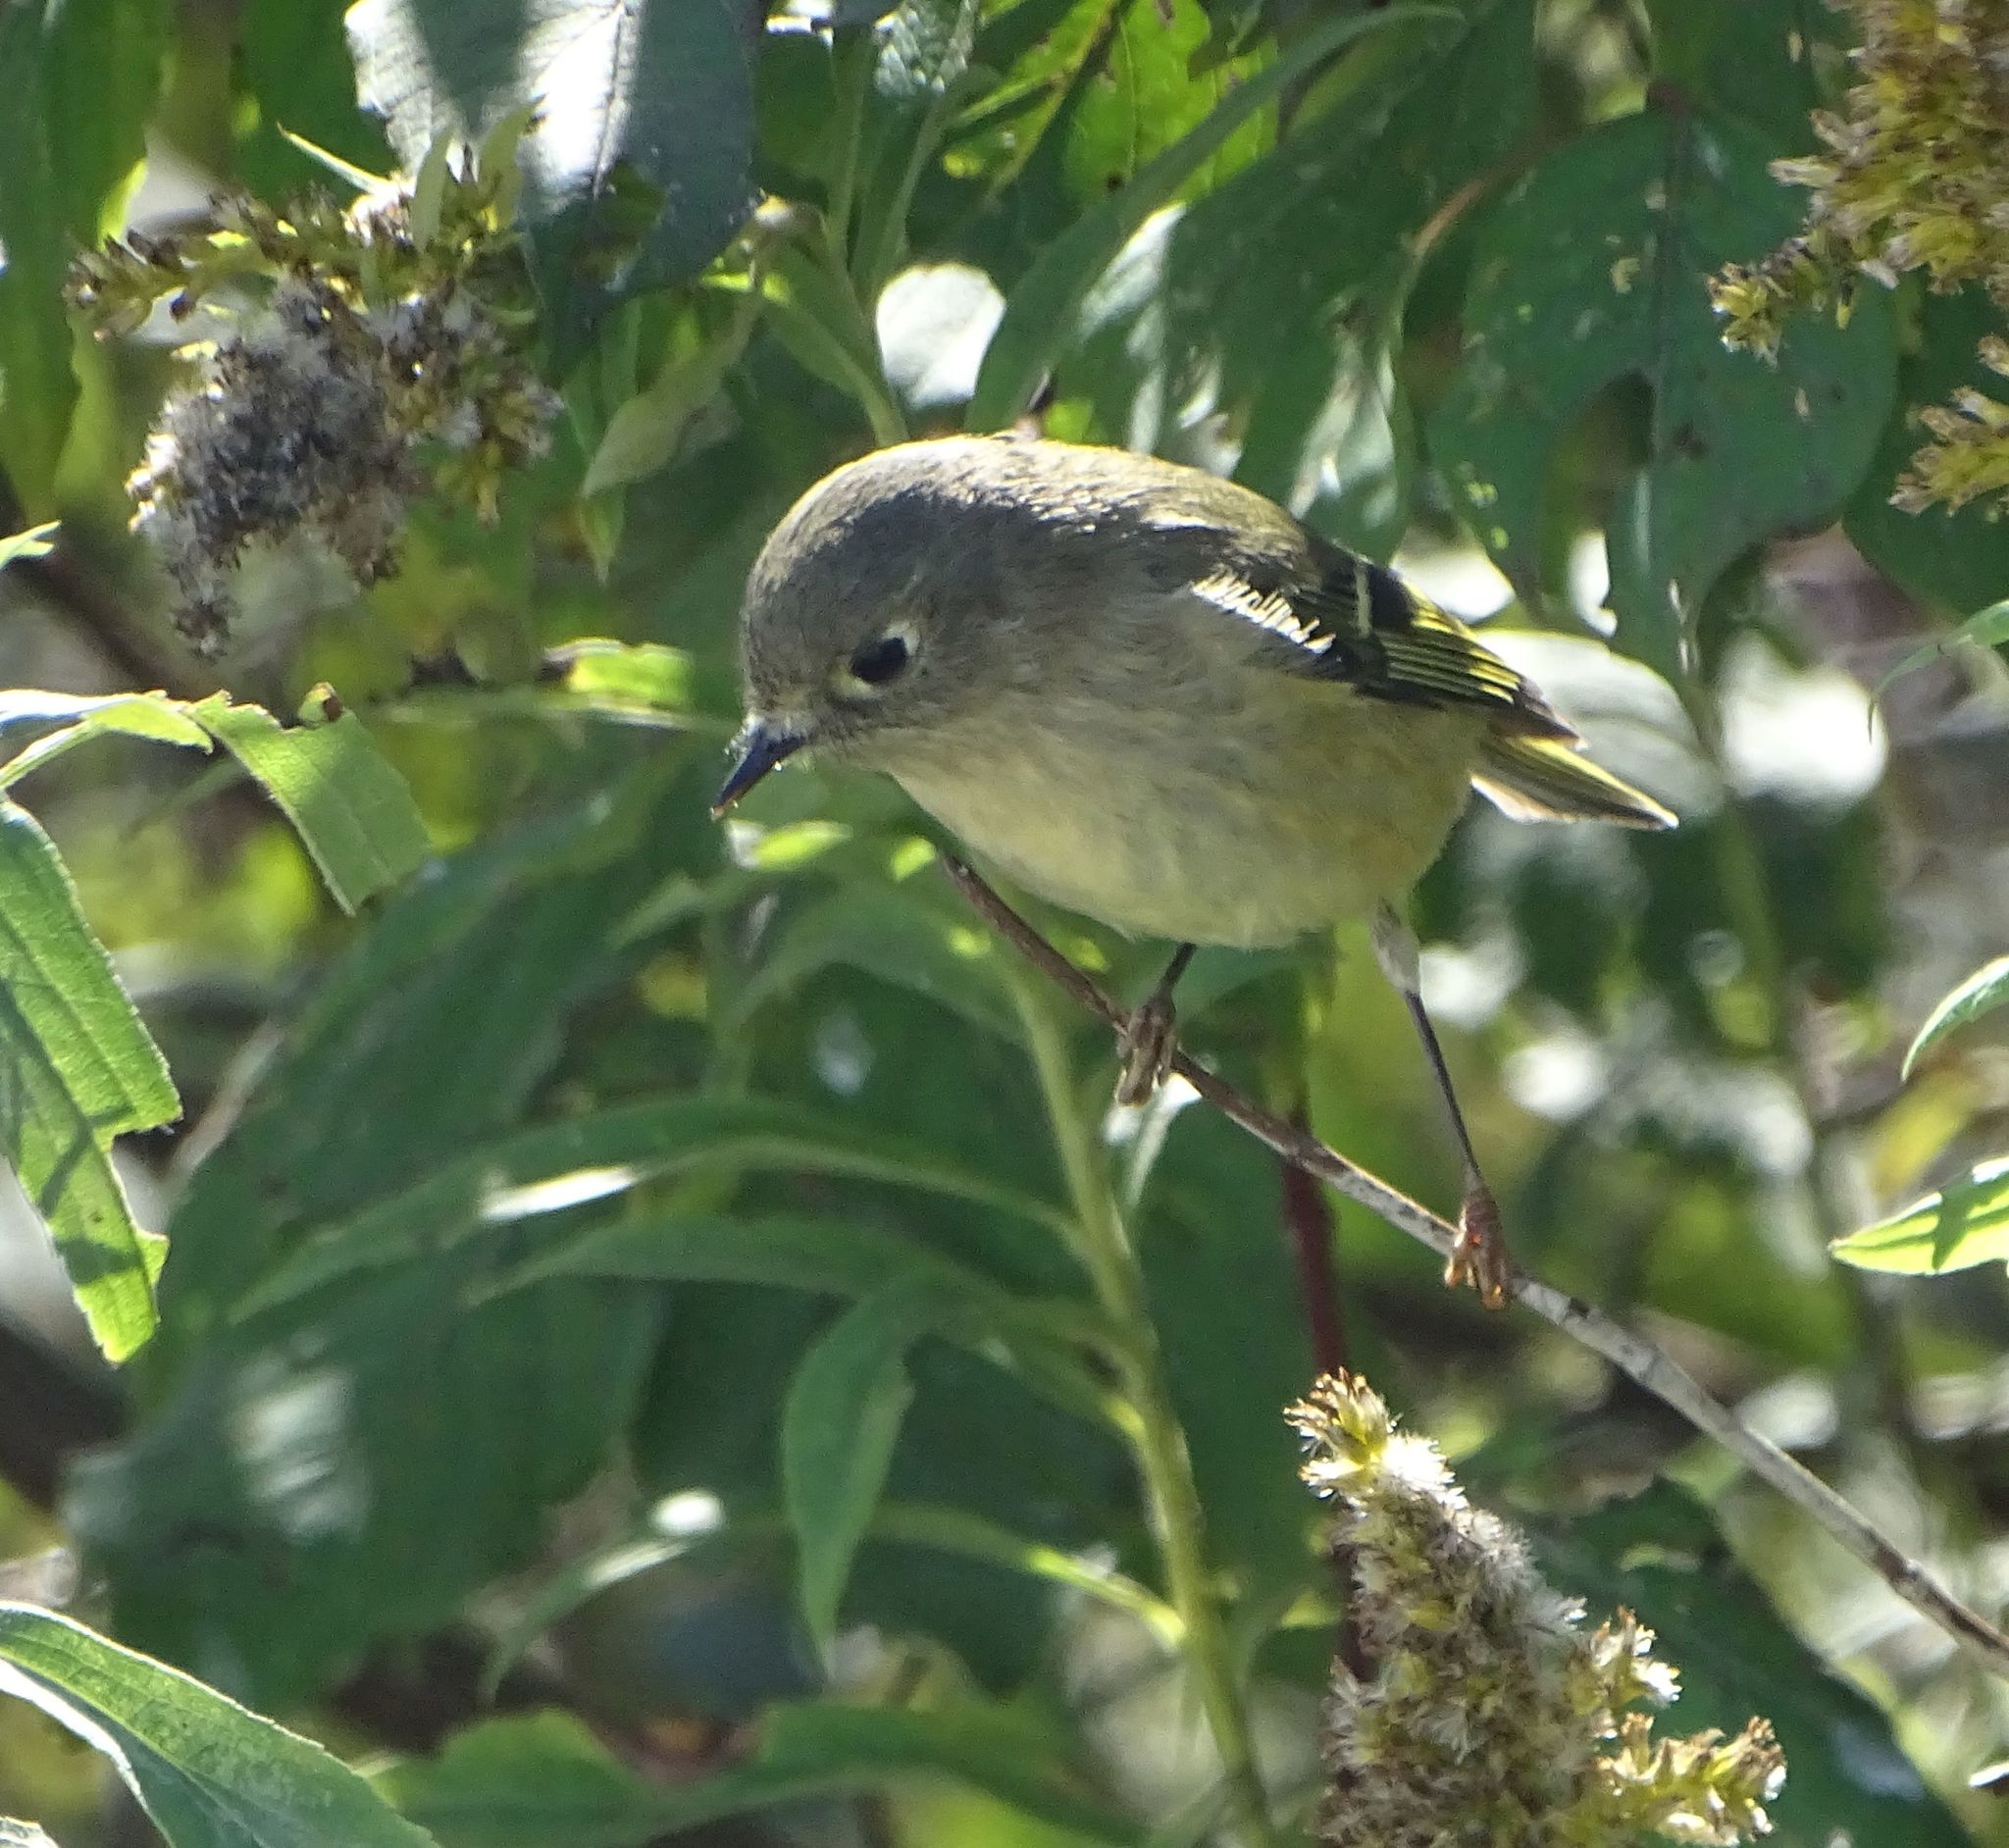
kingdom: Animalia
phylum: Chordata
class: Aves
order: Passeriformes
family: Regulidae
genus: Regulus
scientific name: Regulus calendula
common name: Ruby-crowned kinglet
